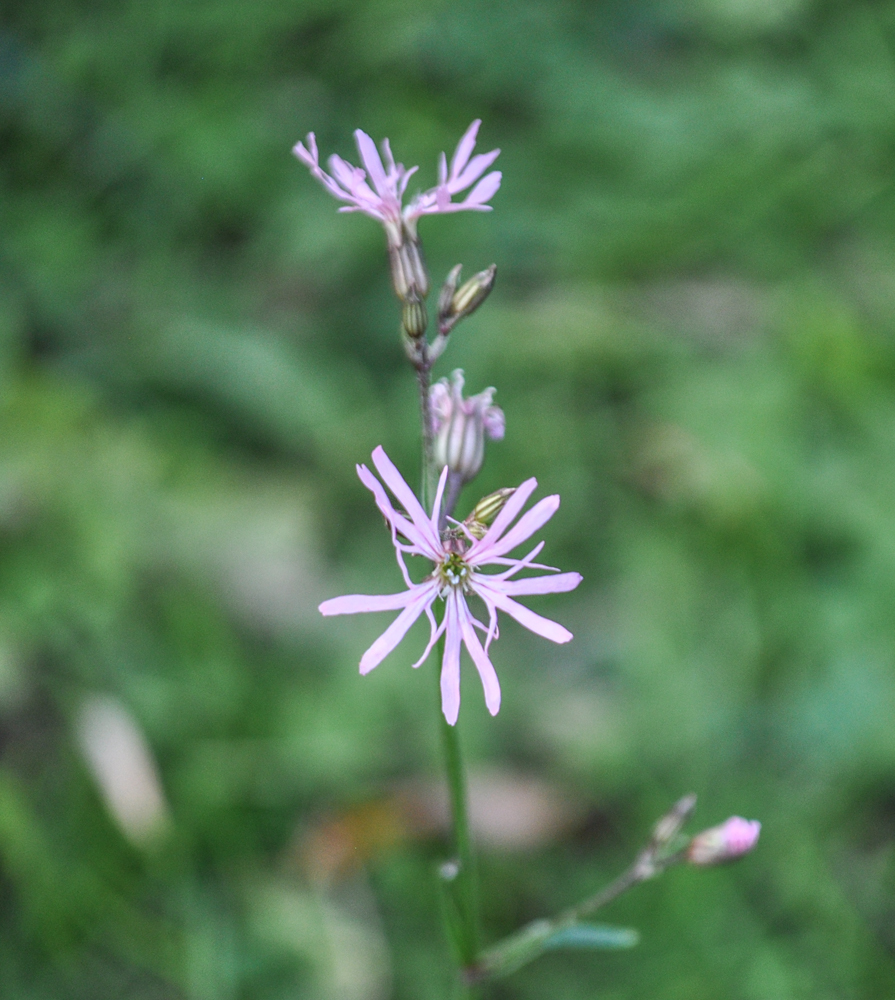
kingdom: Plantae
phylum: Tracheophyta
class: Magnoliopsida
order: Caryophyllales
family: Caryophyllaceae
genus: Silene
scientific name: Silene flos-cuculi
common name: Ragged-robin
